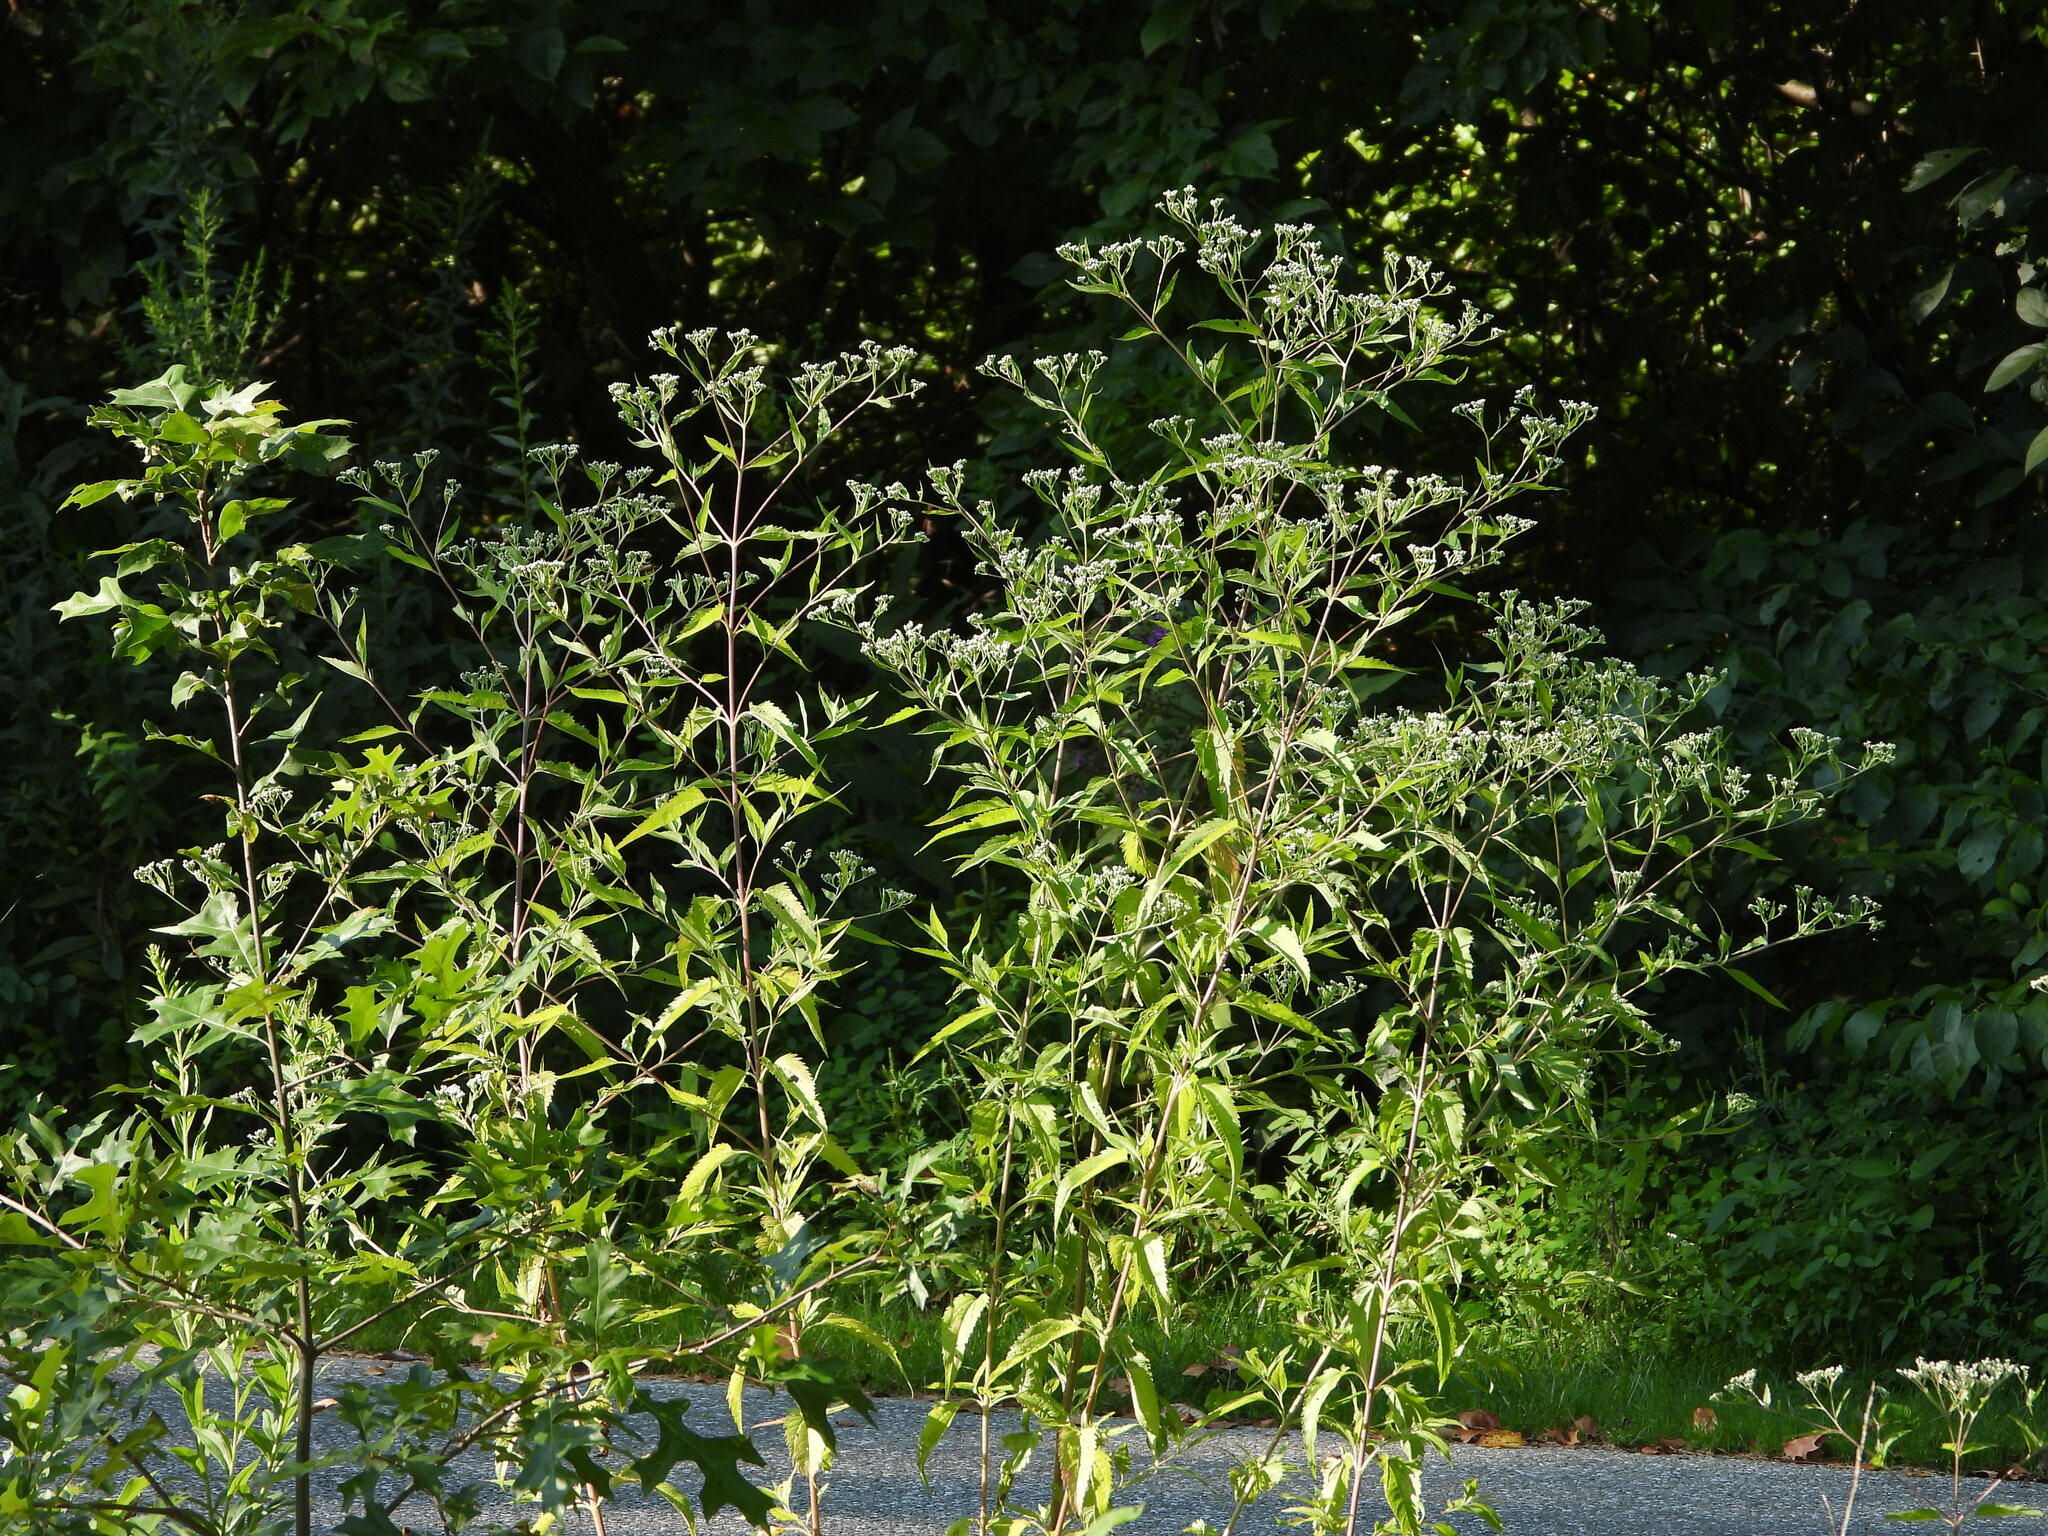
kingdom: Plantae
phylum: Tracheophyta
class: Magnoliopsida
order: Asterales
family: Asteraceae
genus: Eupatorium
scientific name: Eupatorium serotinum
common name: Late boneset
